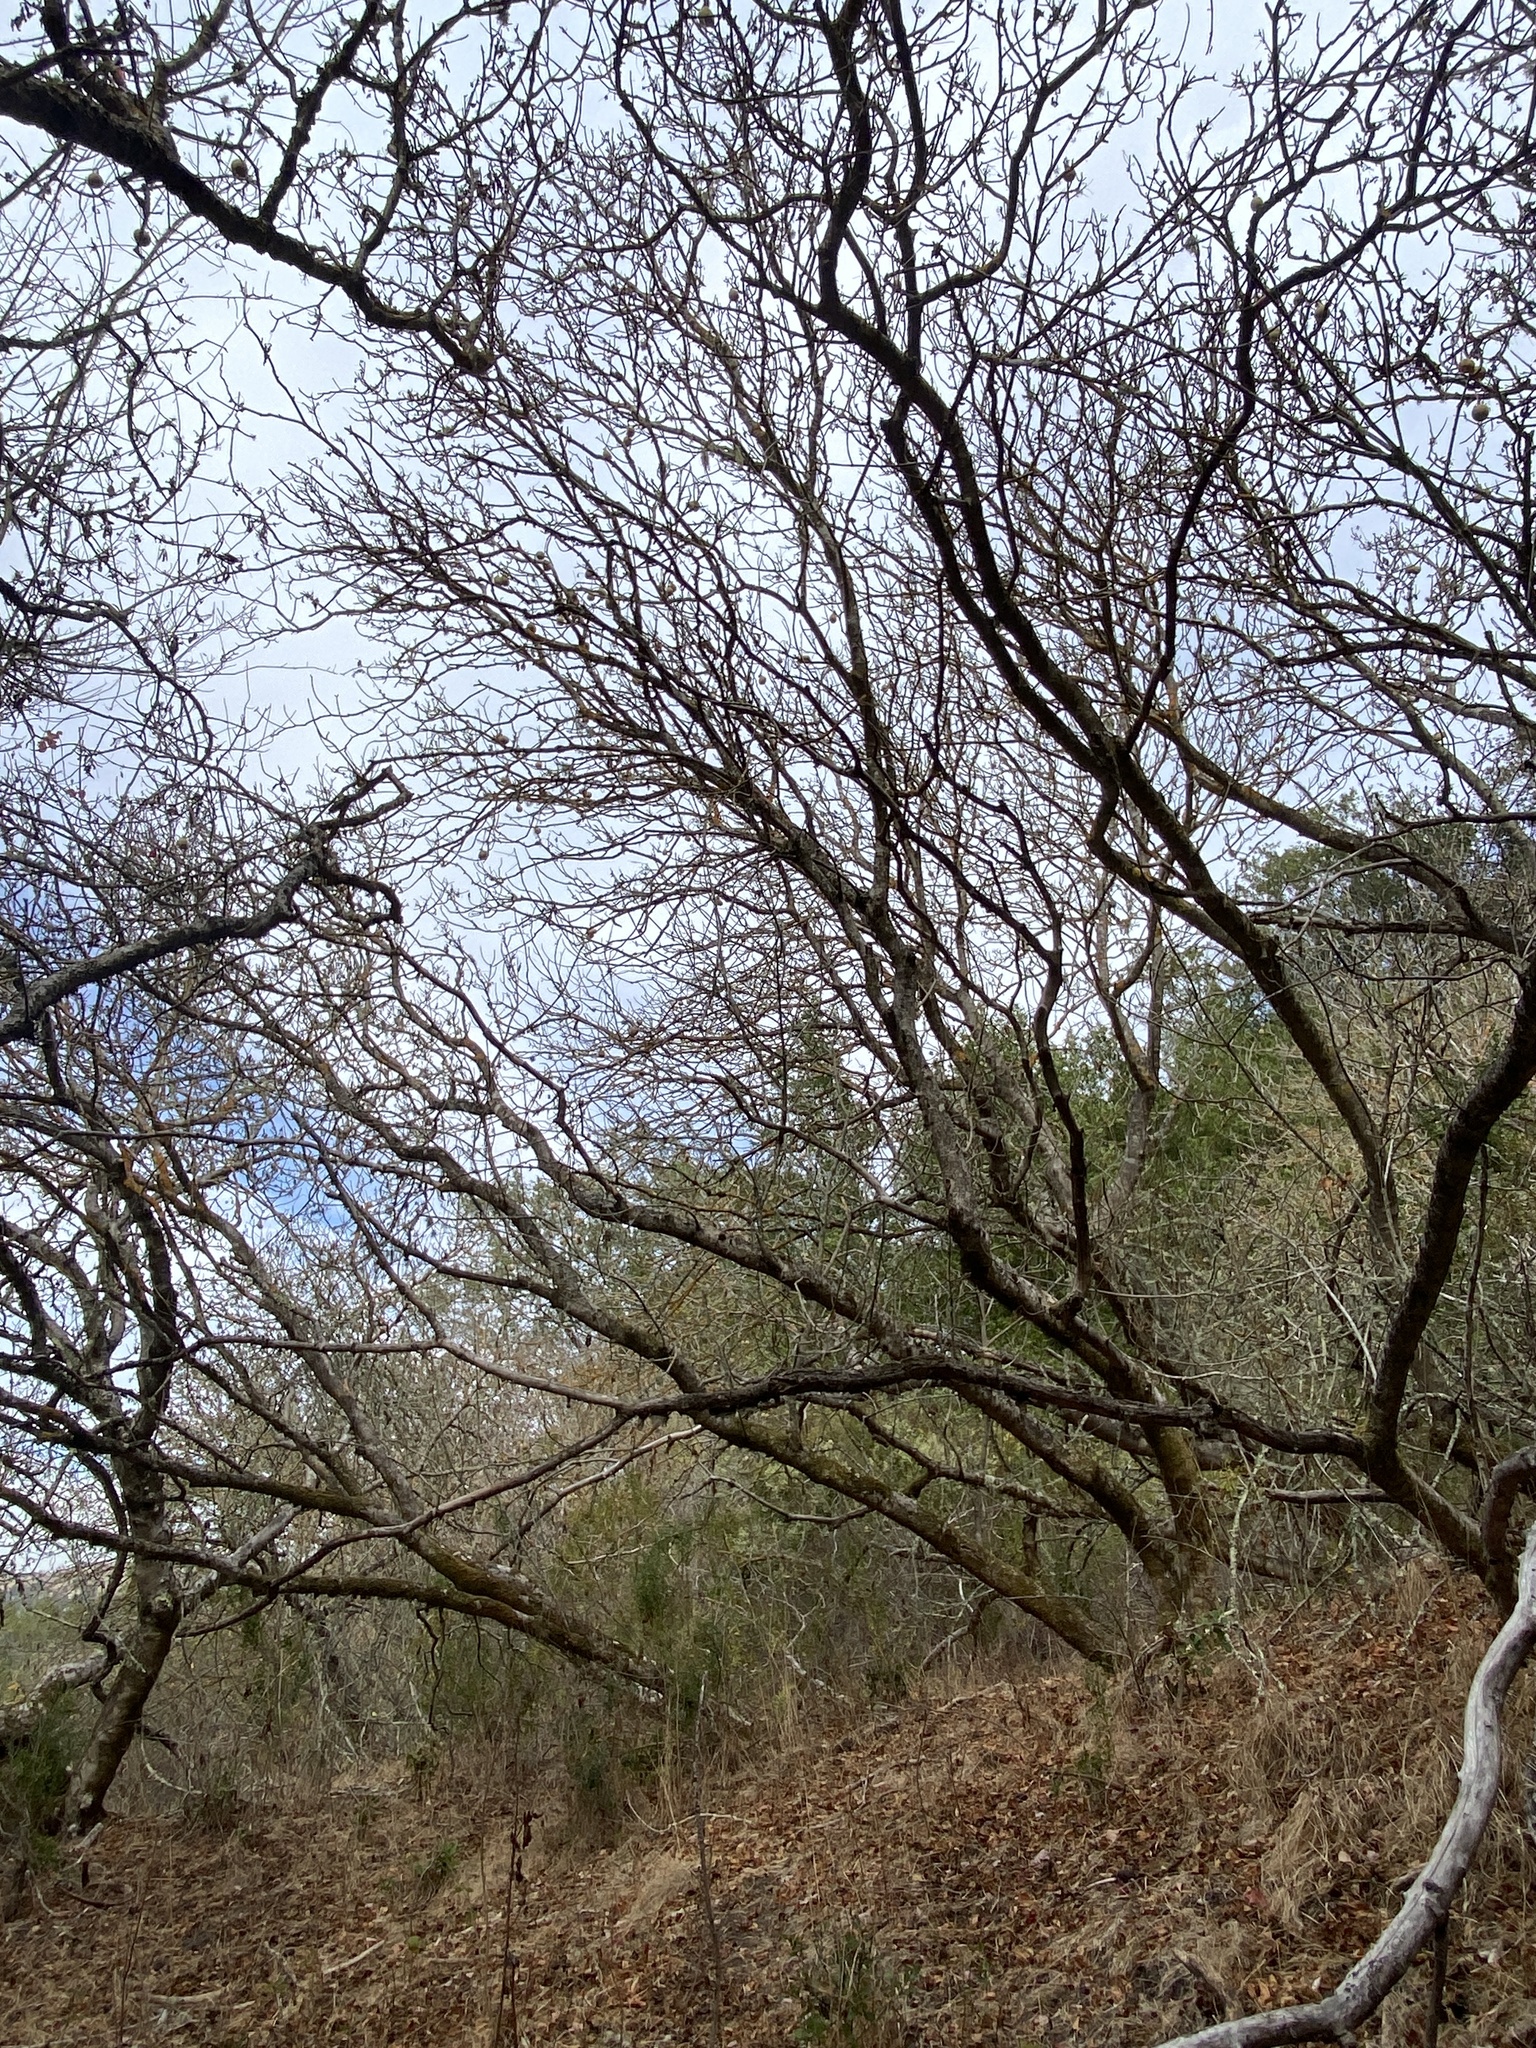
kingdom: Plantae
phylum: Tracheophyta
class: Magnoliopsida
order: Sapindales
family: Sapindaceae
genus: Aesculus
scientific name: Aesculus californica
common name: California buckeye
